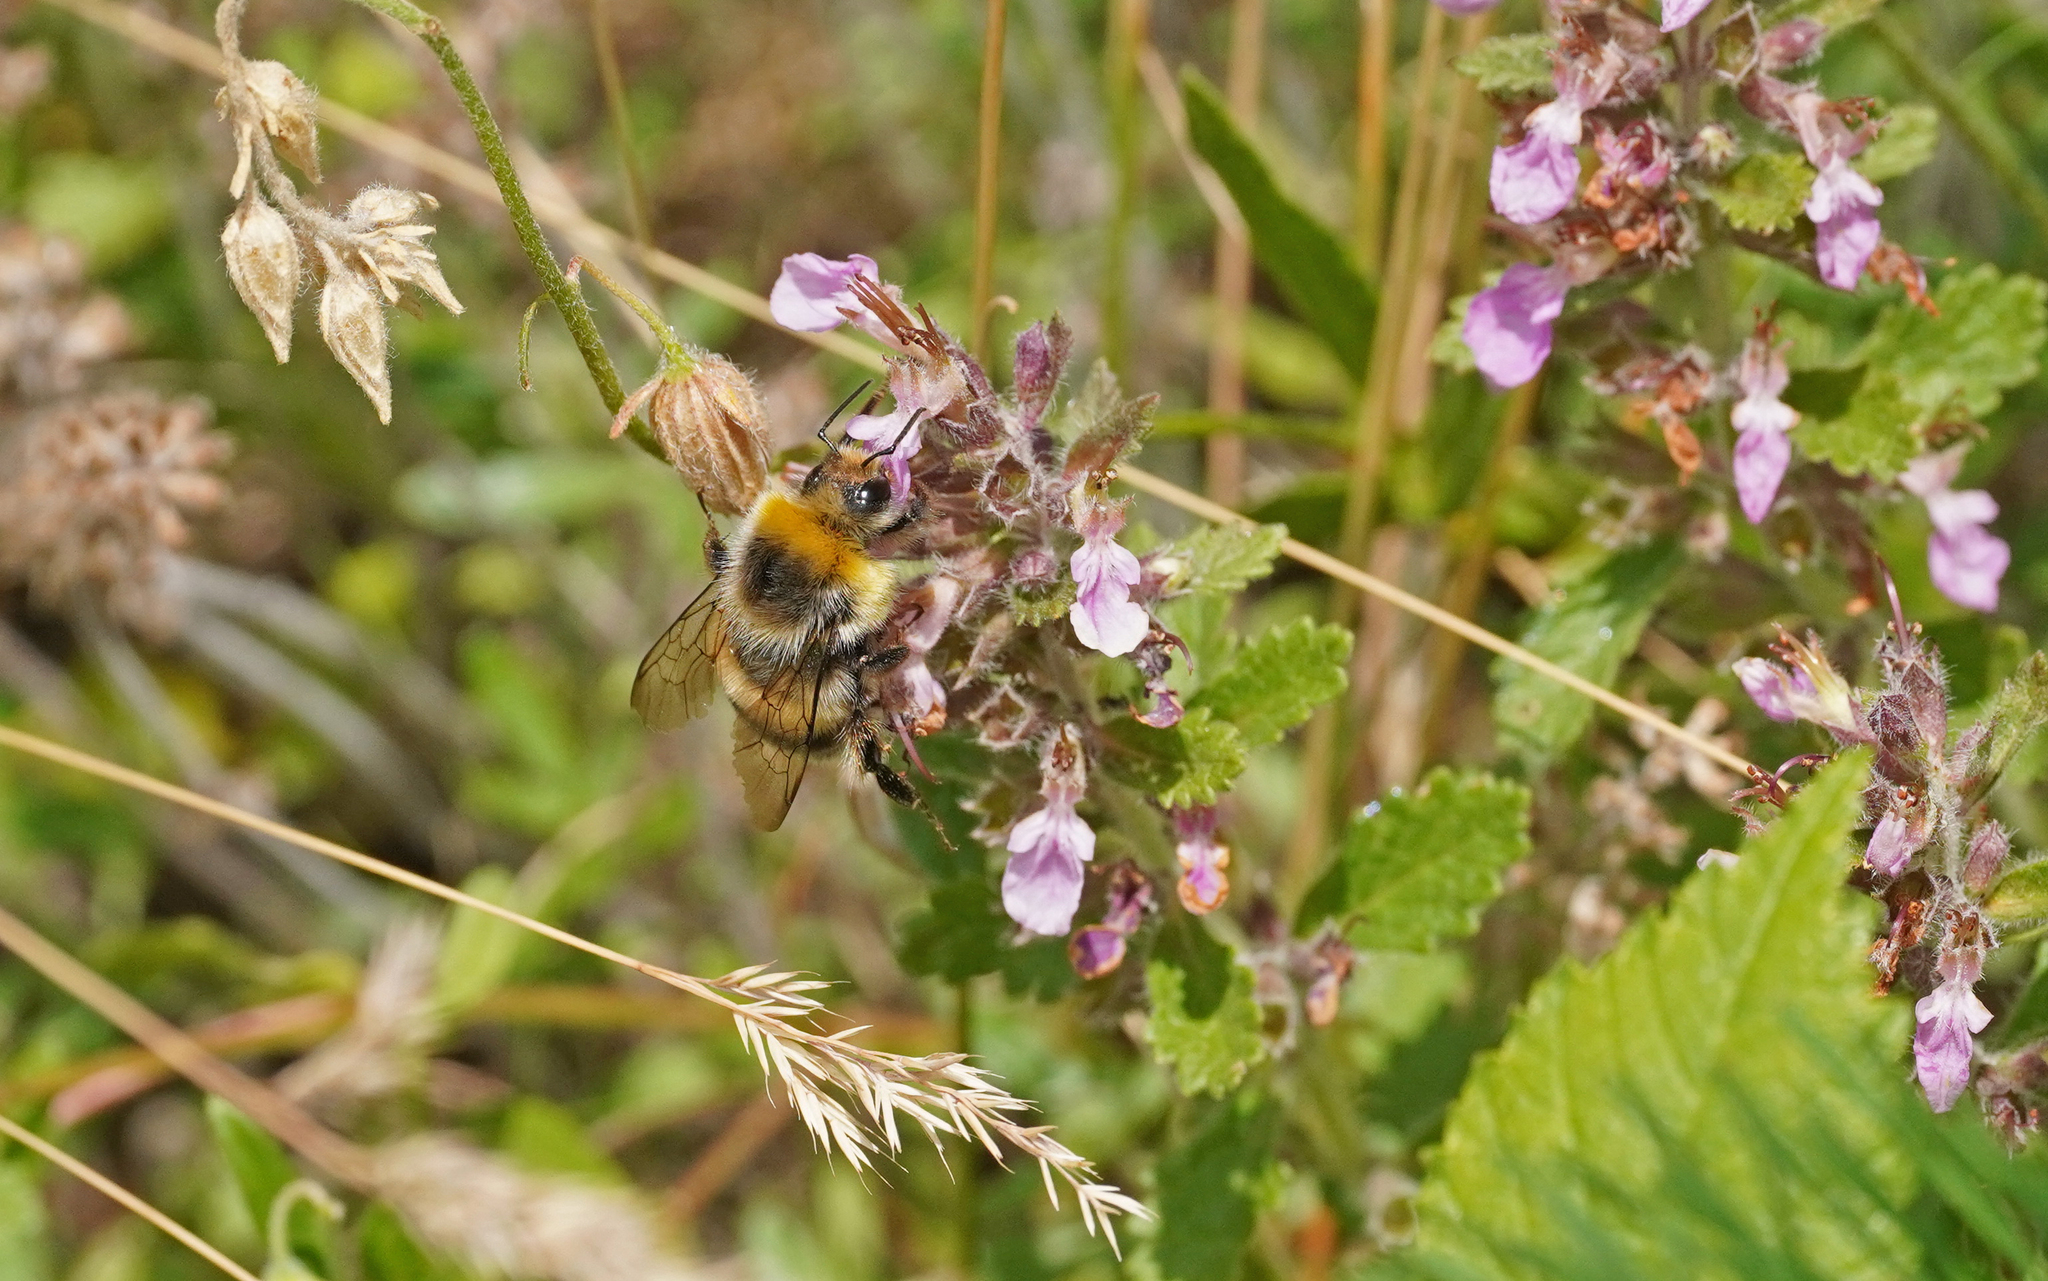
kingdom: Animalia
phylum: Arthropoda
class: Insecta
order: Hymenoptera
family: Apidae
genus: Bombus
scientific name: Bombus lucorum
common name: White-tailed bumblebee
